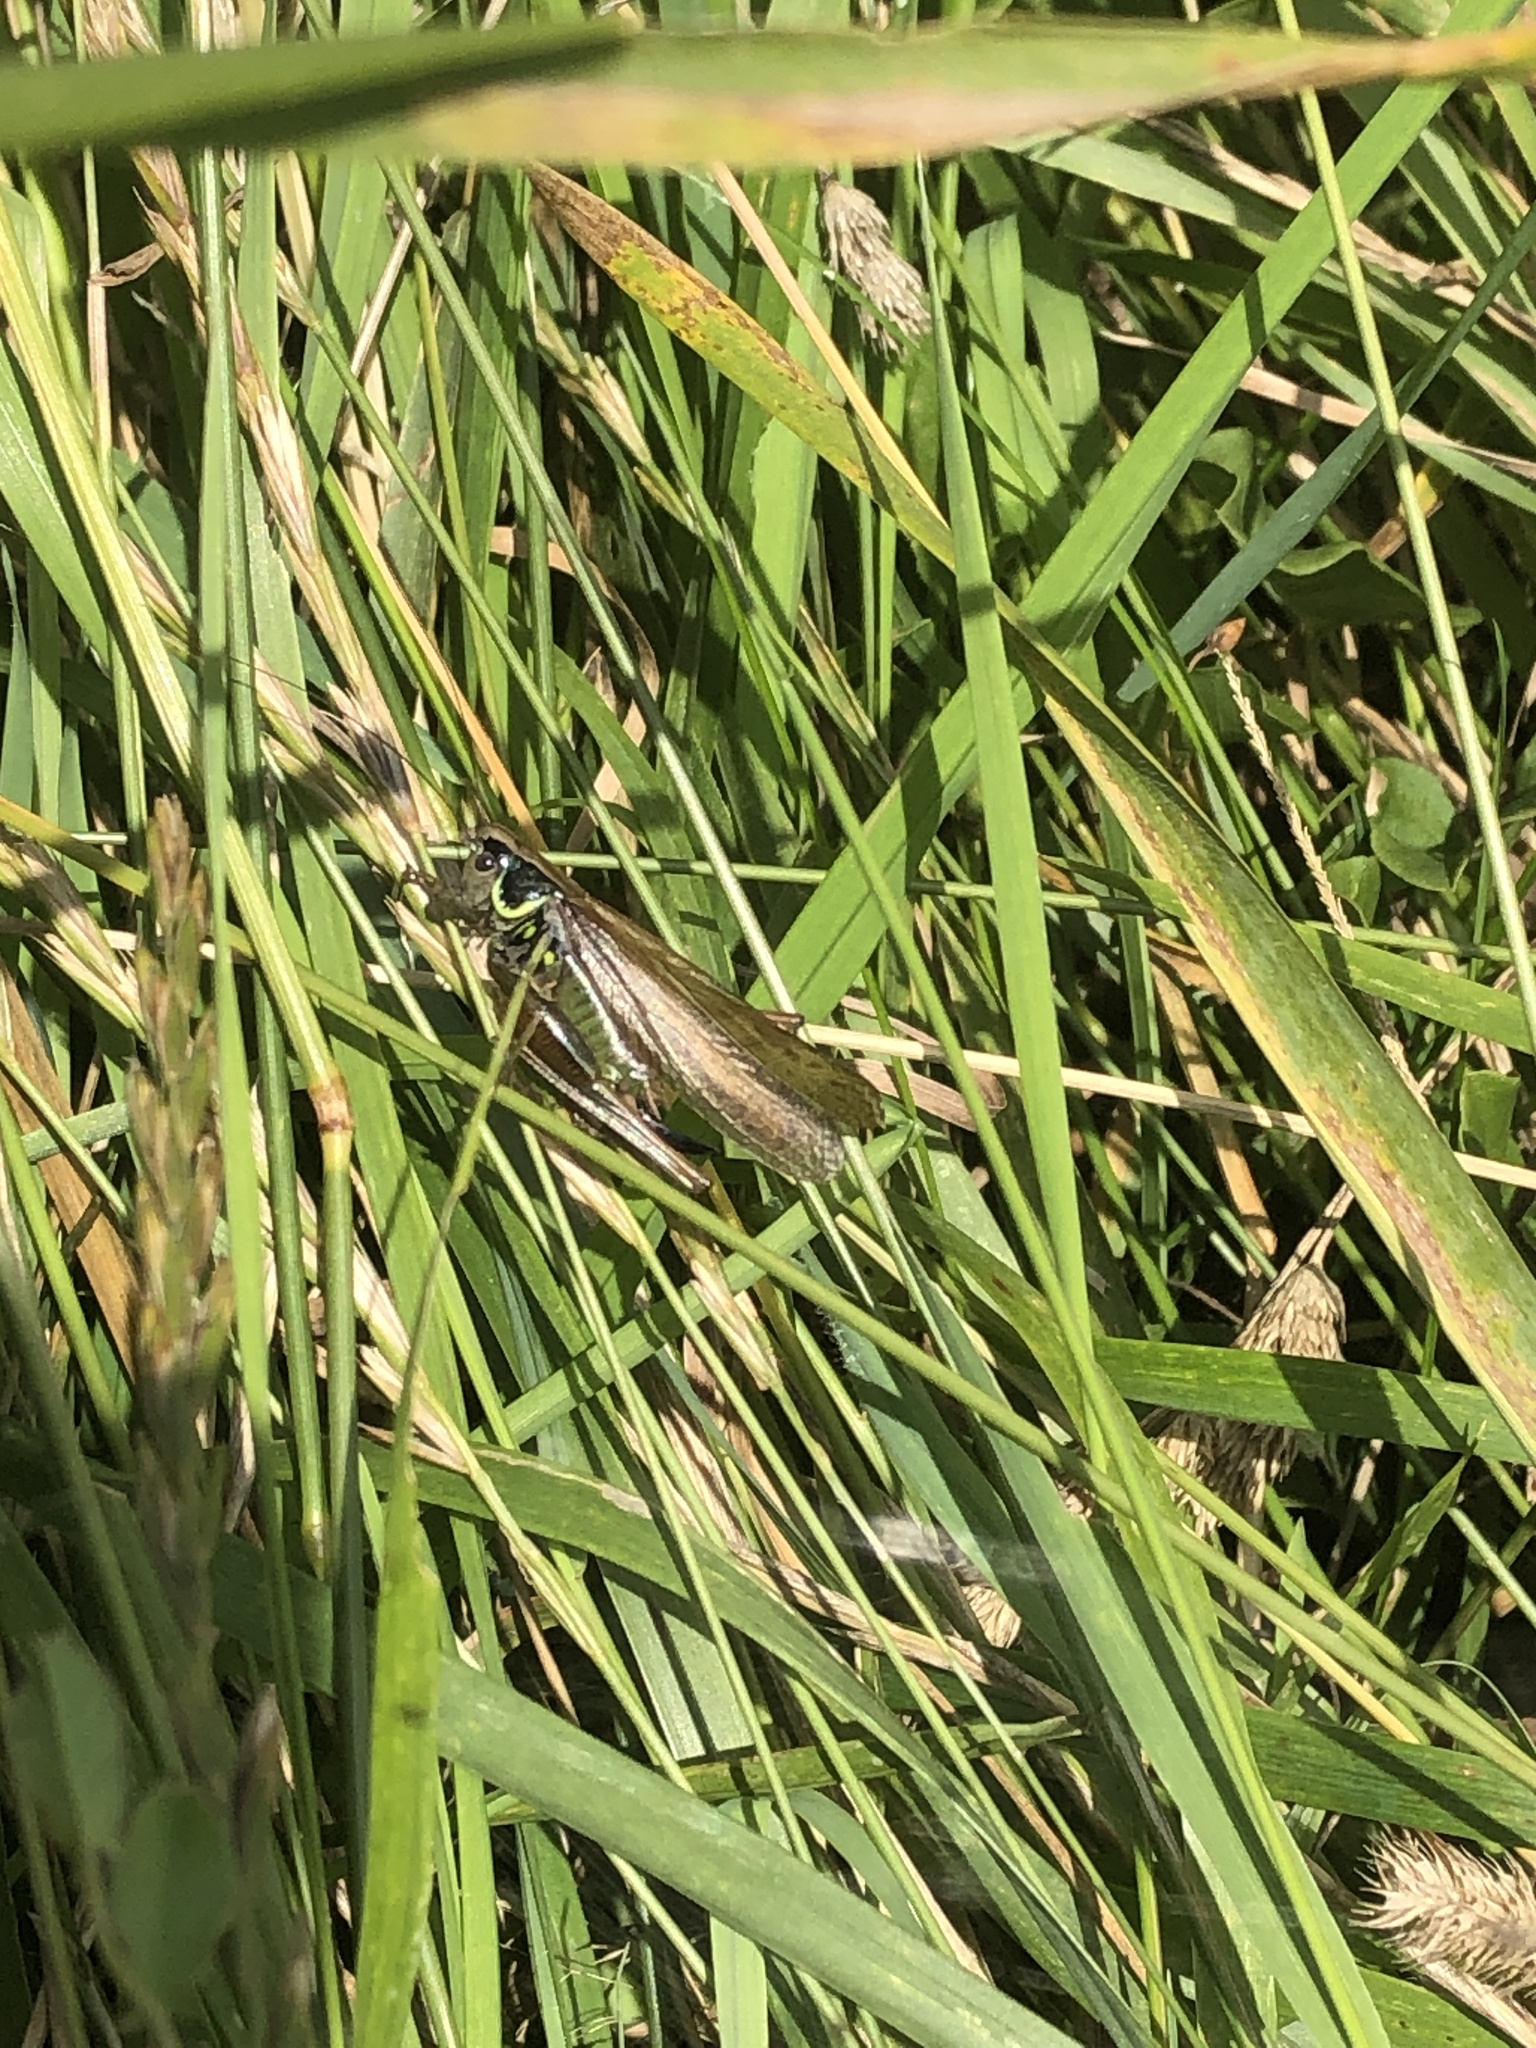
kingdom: Animalia
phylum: Arthropoda
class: Insecta
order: Orthoptera
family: Tettigoniidae
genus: Roeseliana
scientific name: Roeseliana roeselii
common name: Roesel's bush cricket
